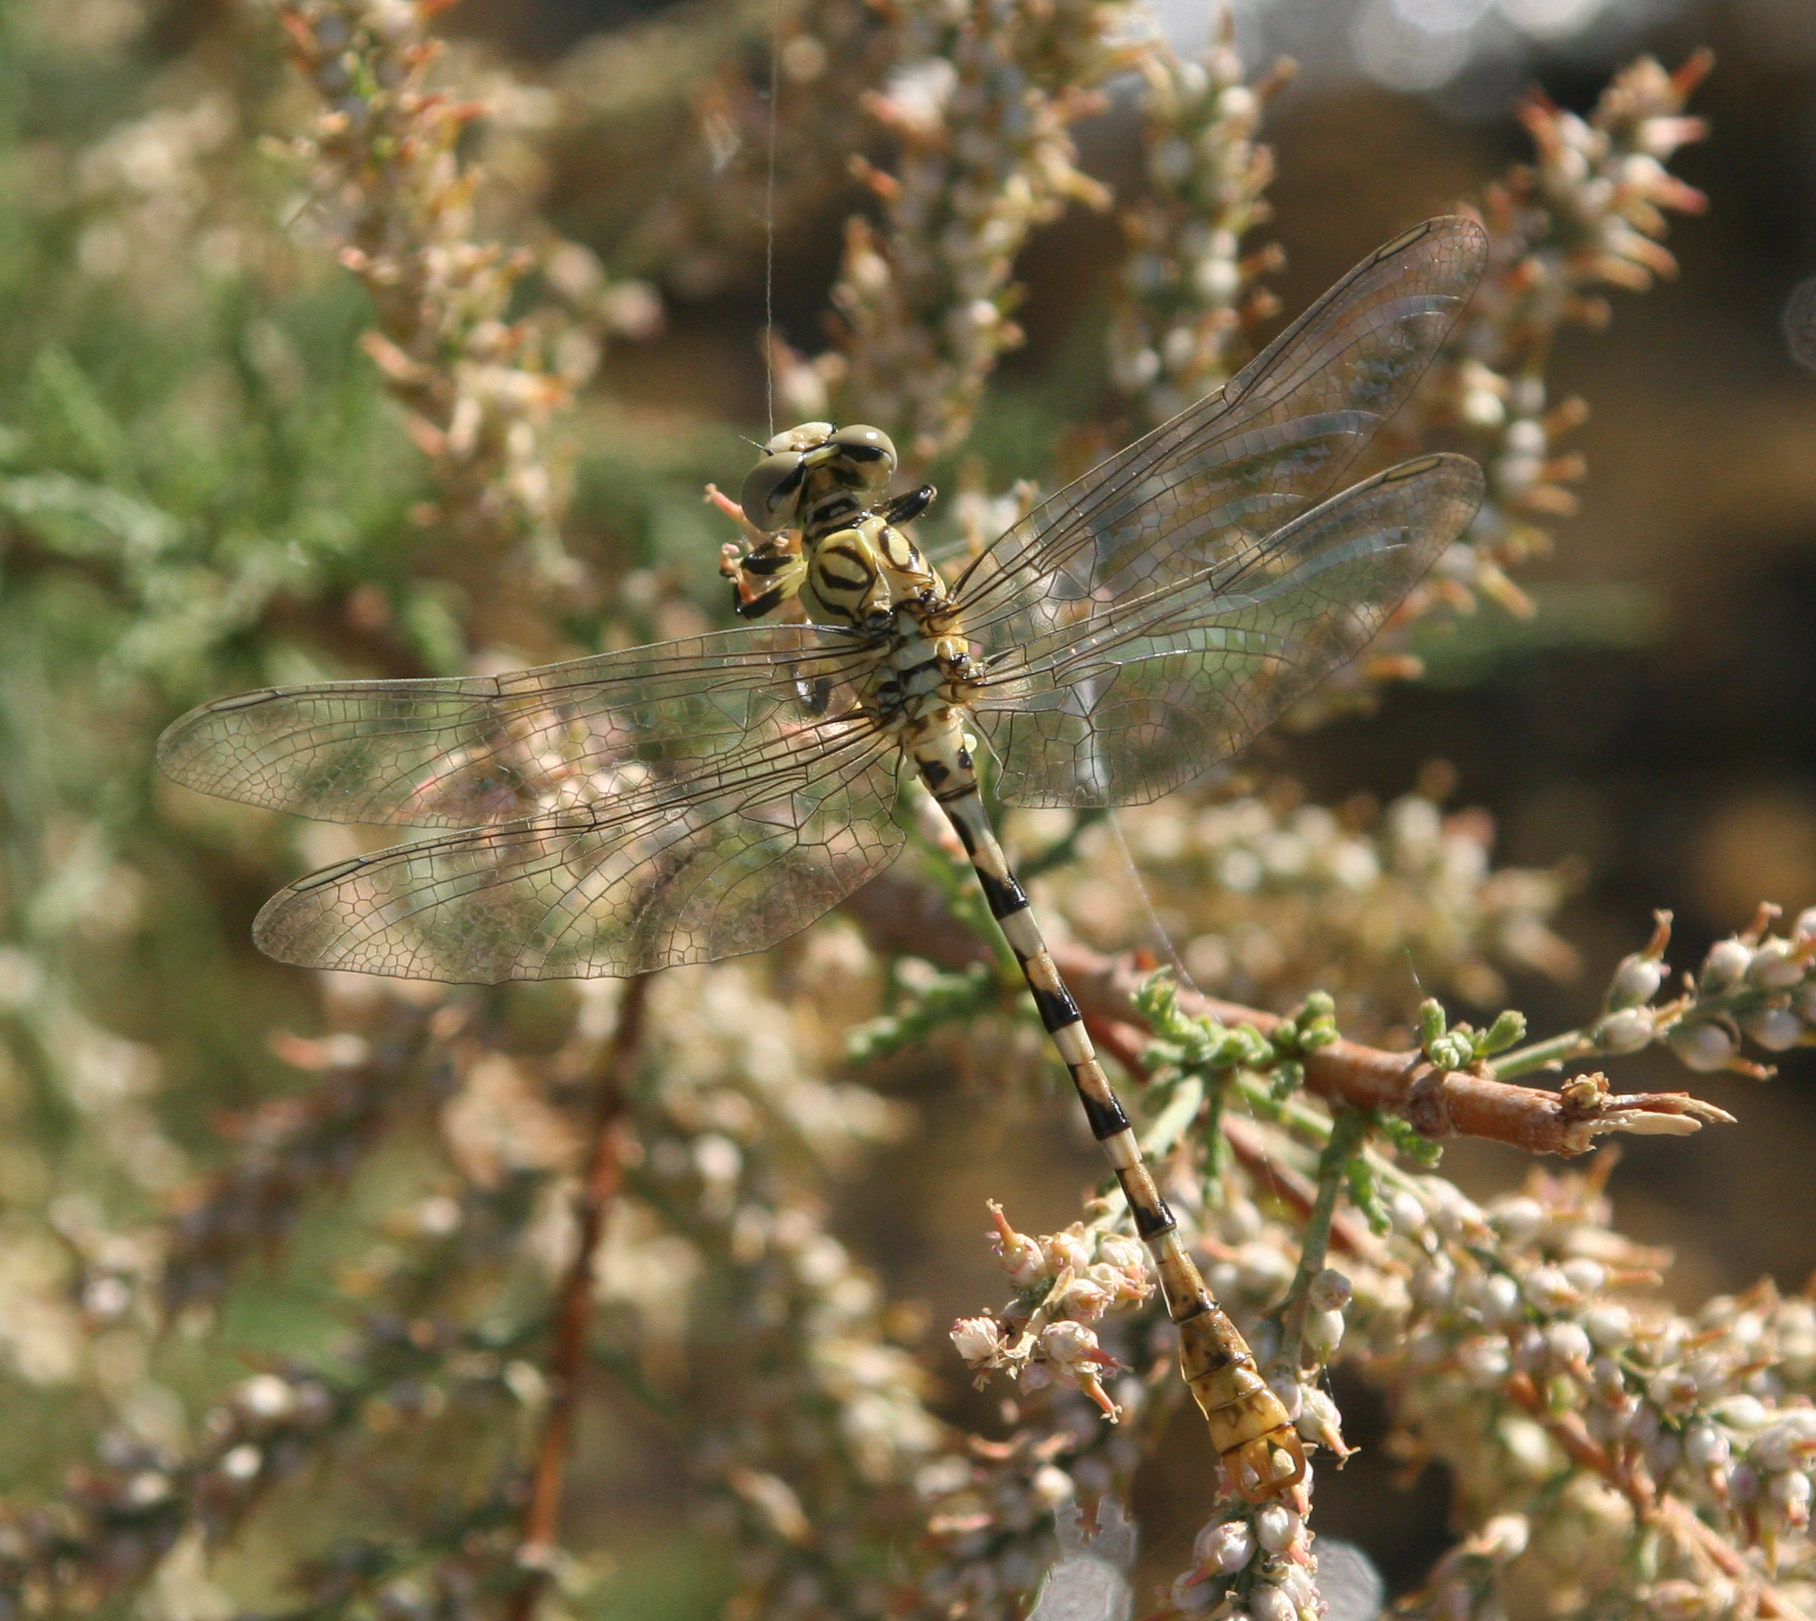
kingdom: Animalia
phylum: Arthropoda
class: Insecta
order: Odonata
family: Gomphidae
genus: Onychogomphus
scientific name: Onychogomphus lefebvrii
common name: Pale pincertail
